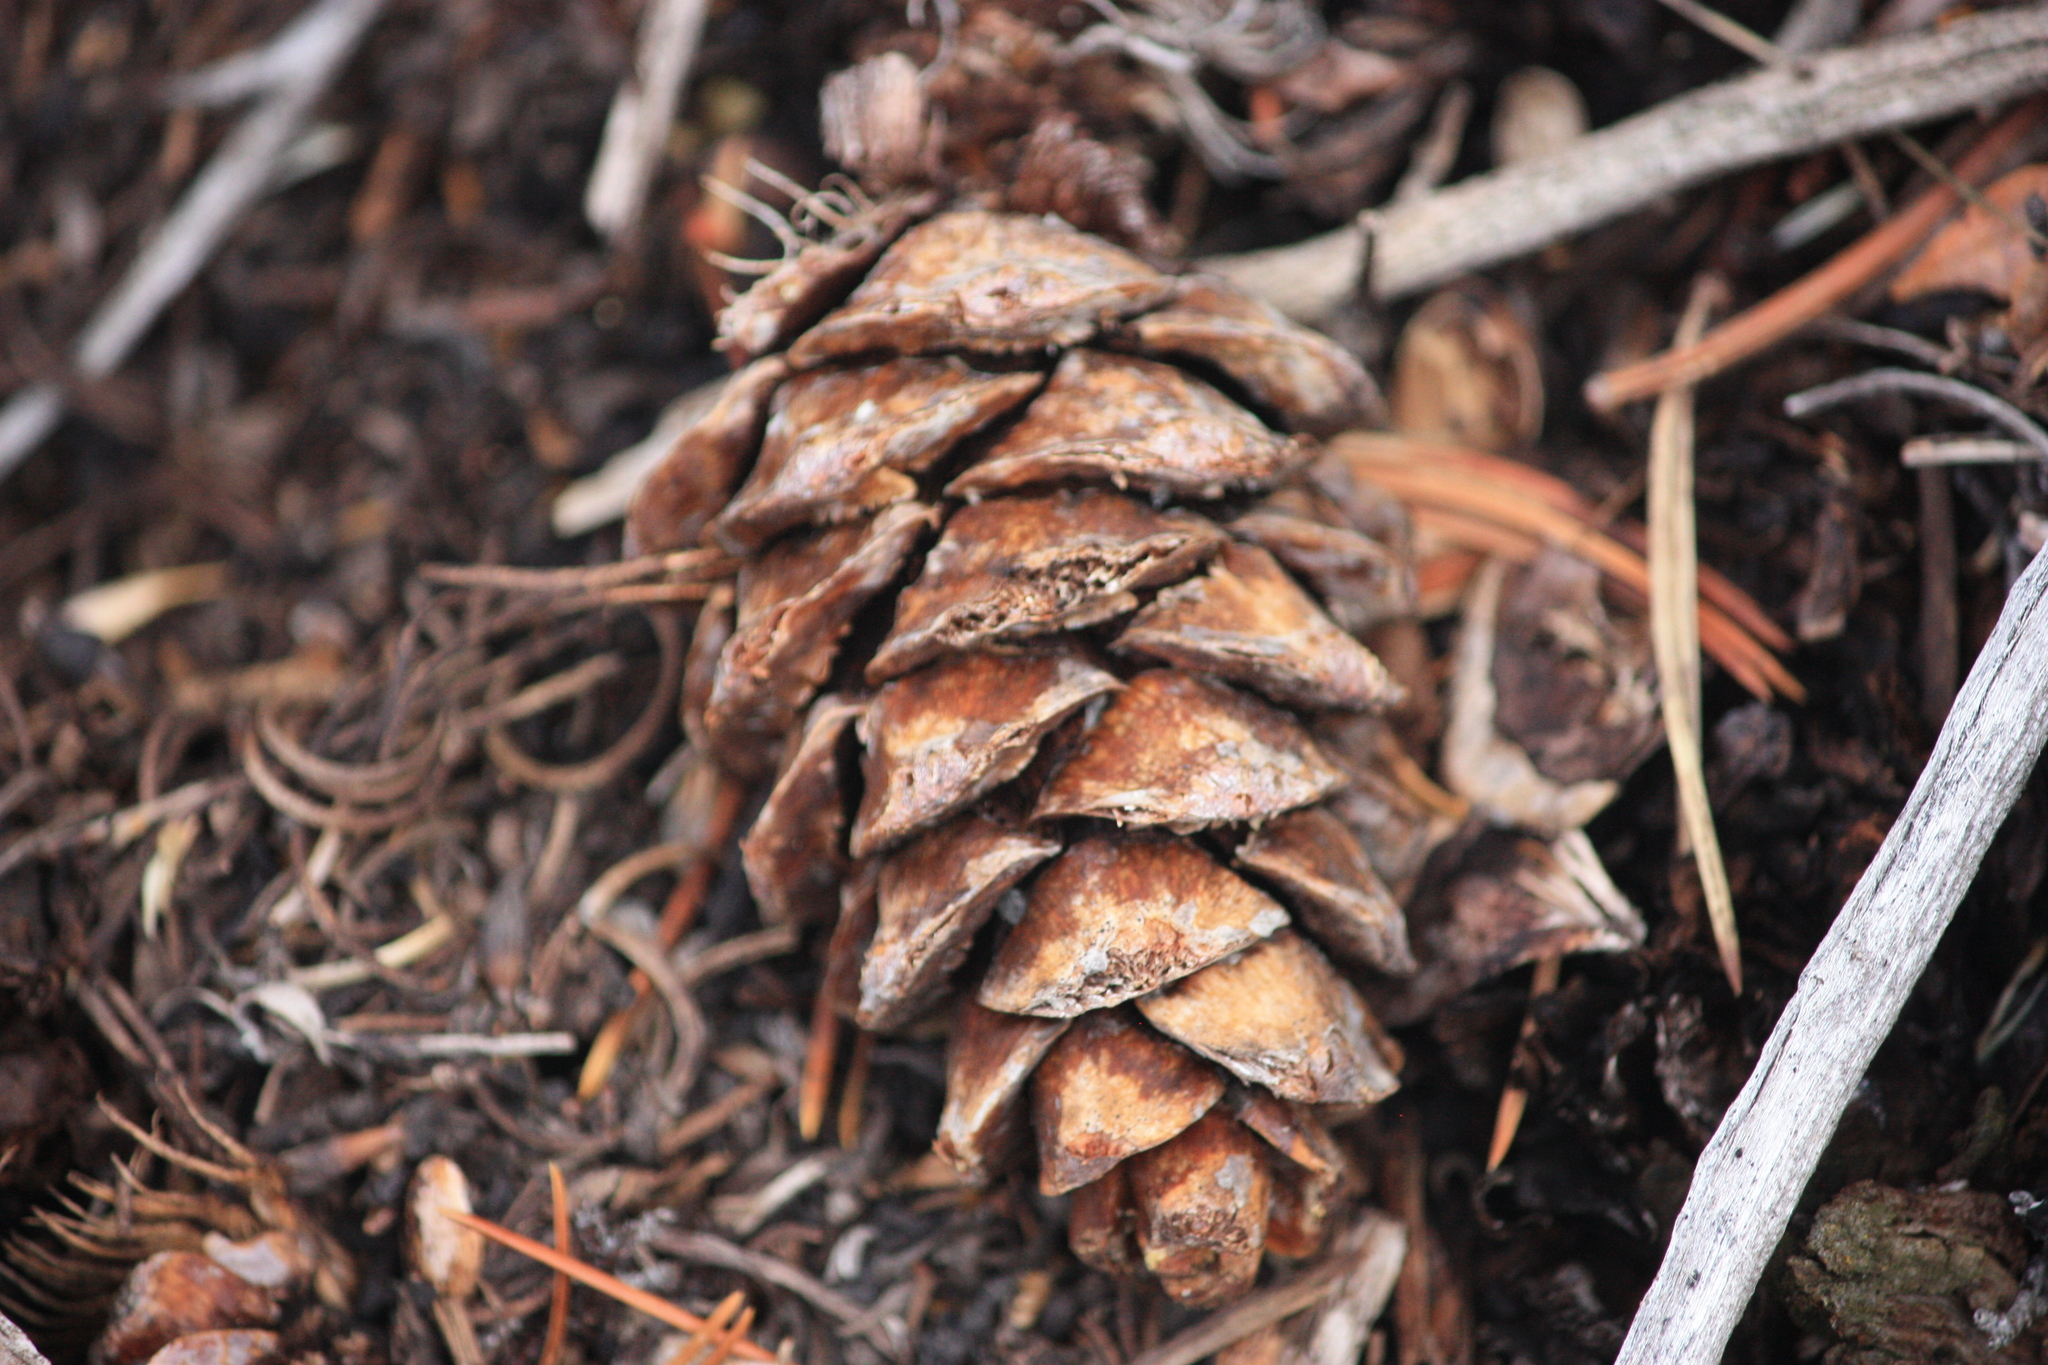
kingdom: Plantae
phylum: Tracheophyta
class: Pinopsida
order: Pinales
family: Pinaceae
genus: Pinus
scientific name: Pinus flexilis
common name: Limber pine
